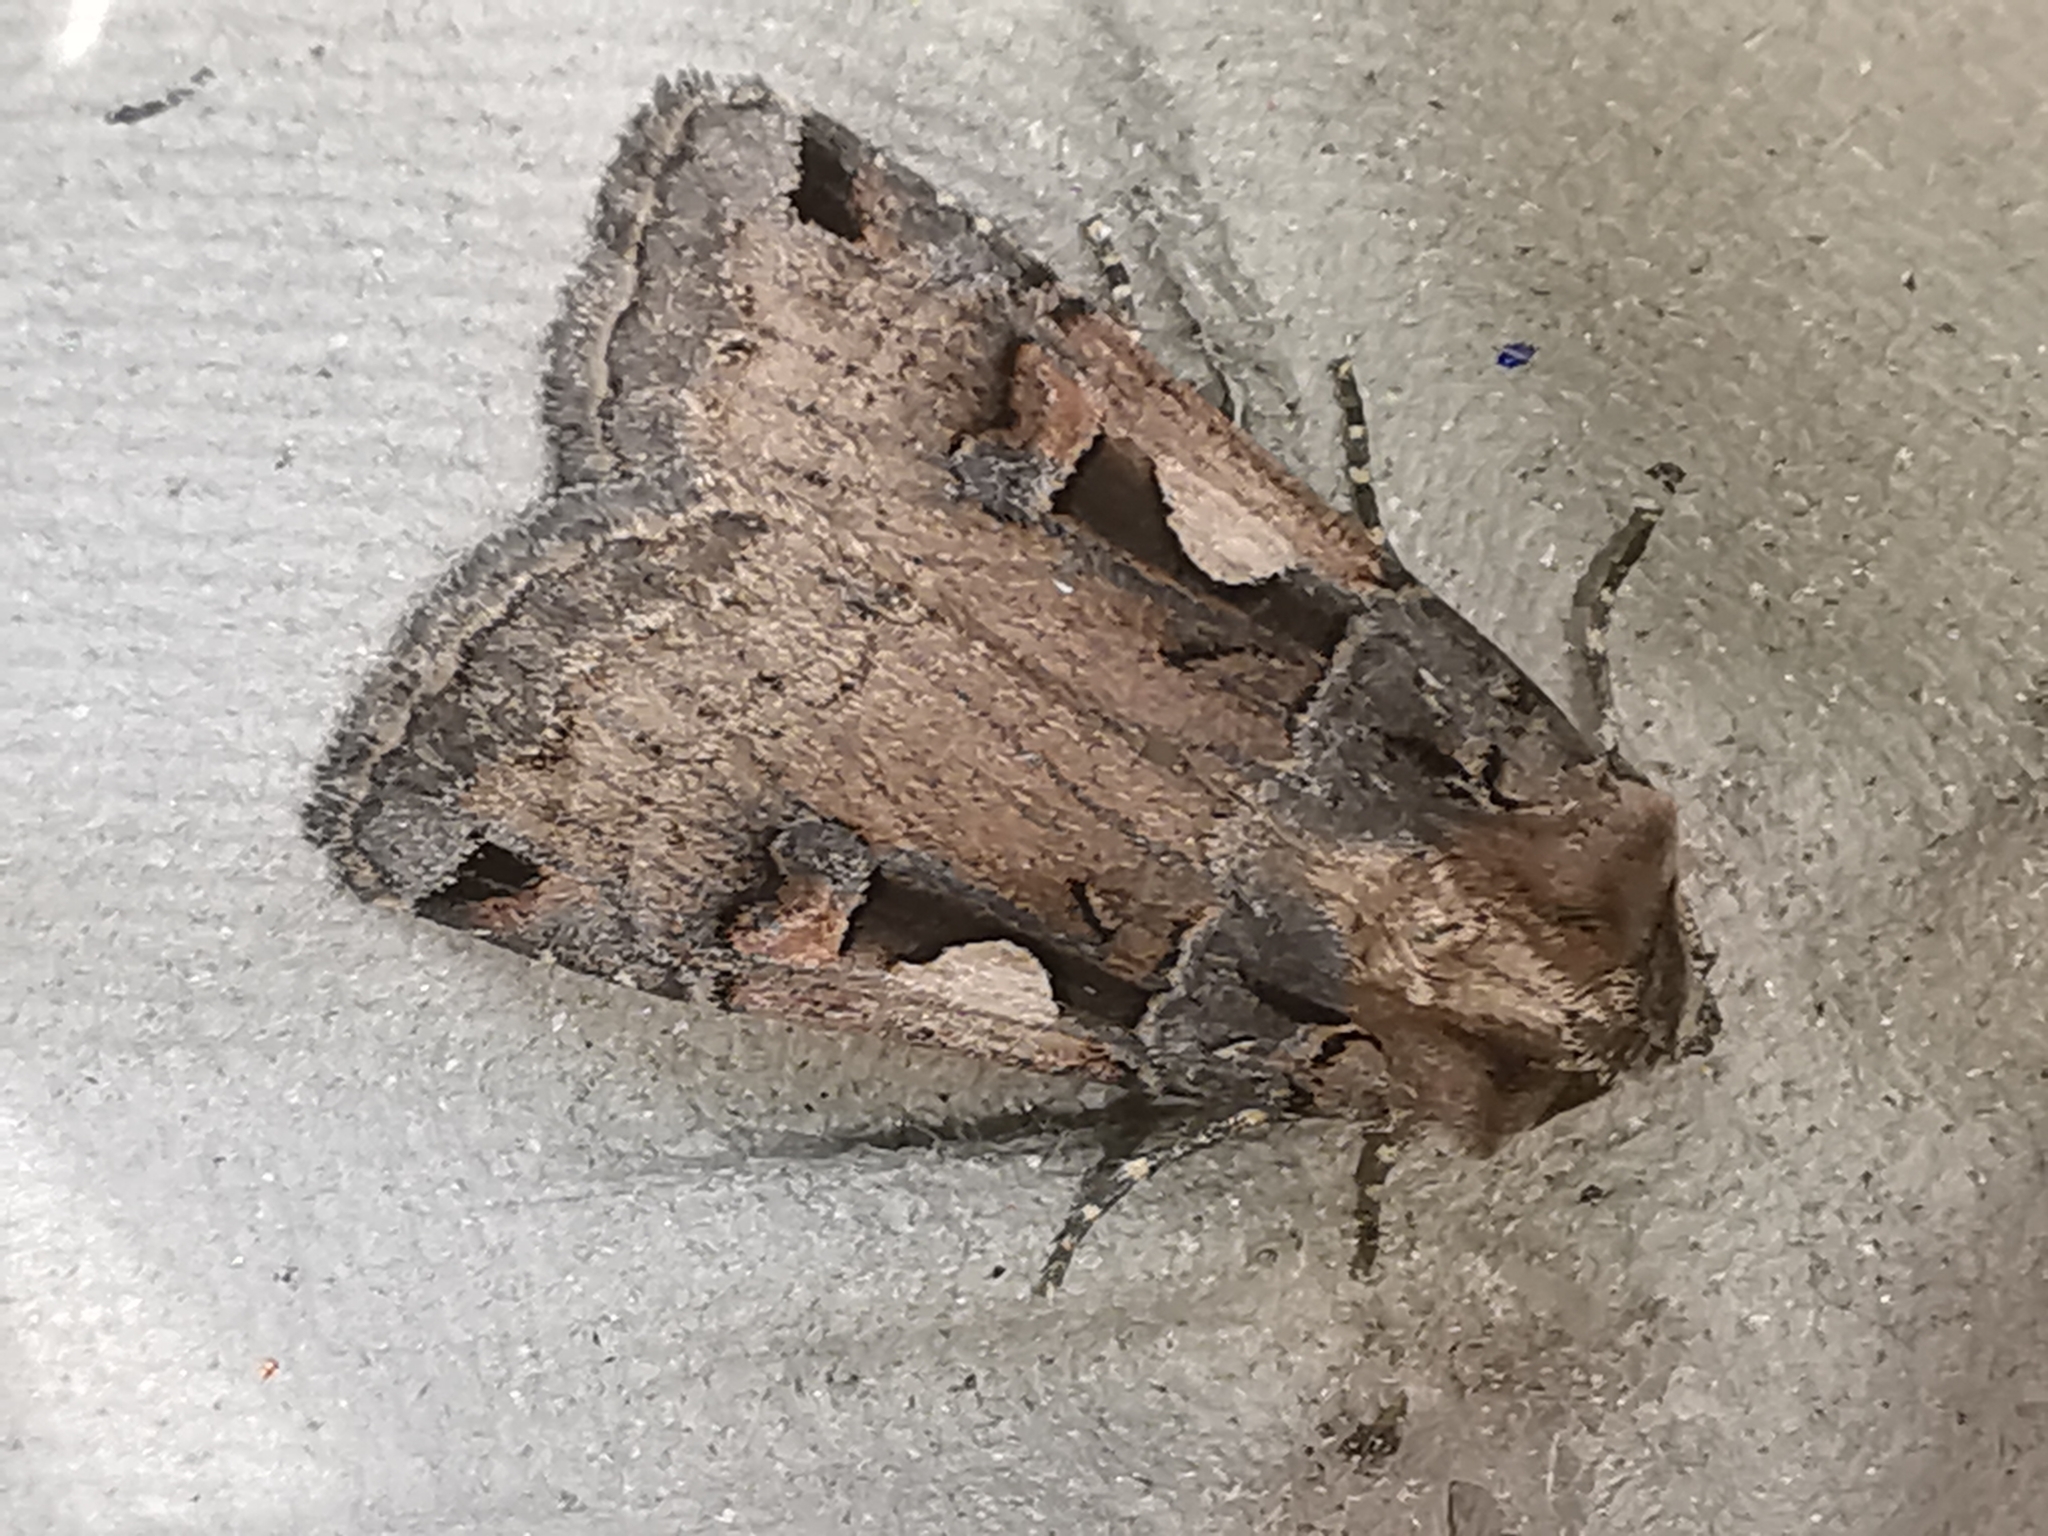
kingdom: Animalia
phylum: Arthropoda
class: Insecta
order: Lepidoptera
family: Noctuidae
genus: Xestia
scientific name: Xestia c-nigrum
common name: Setaceous hebrew character
